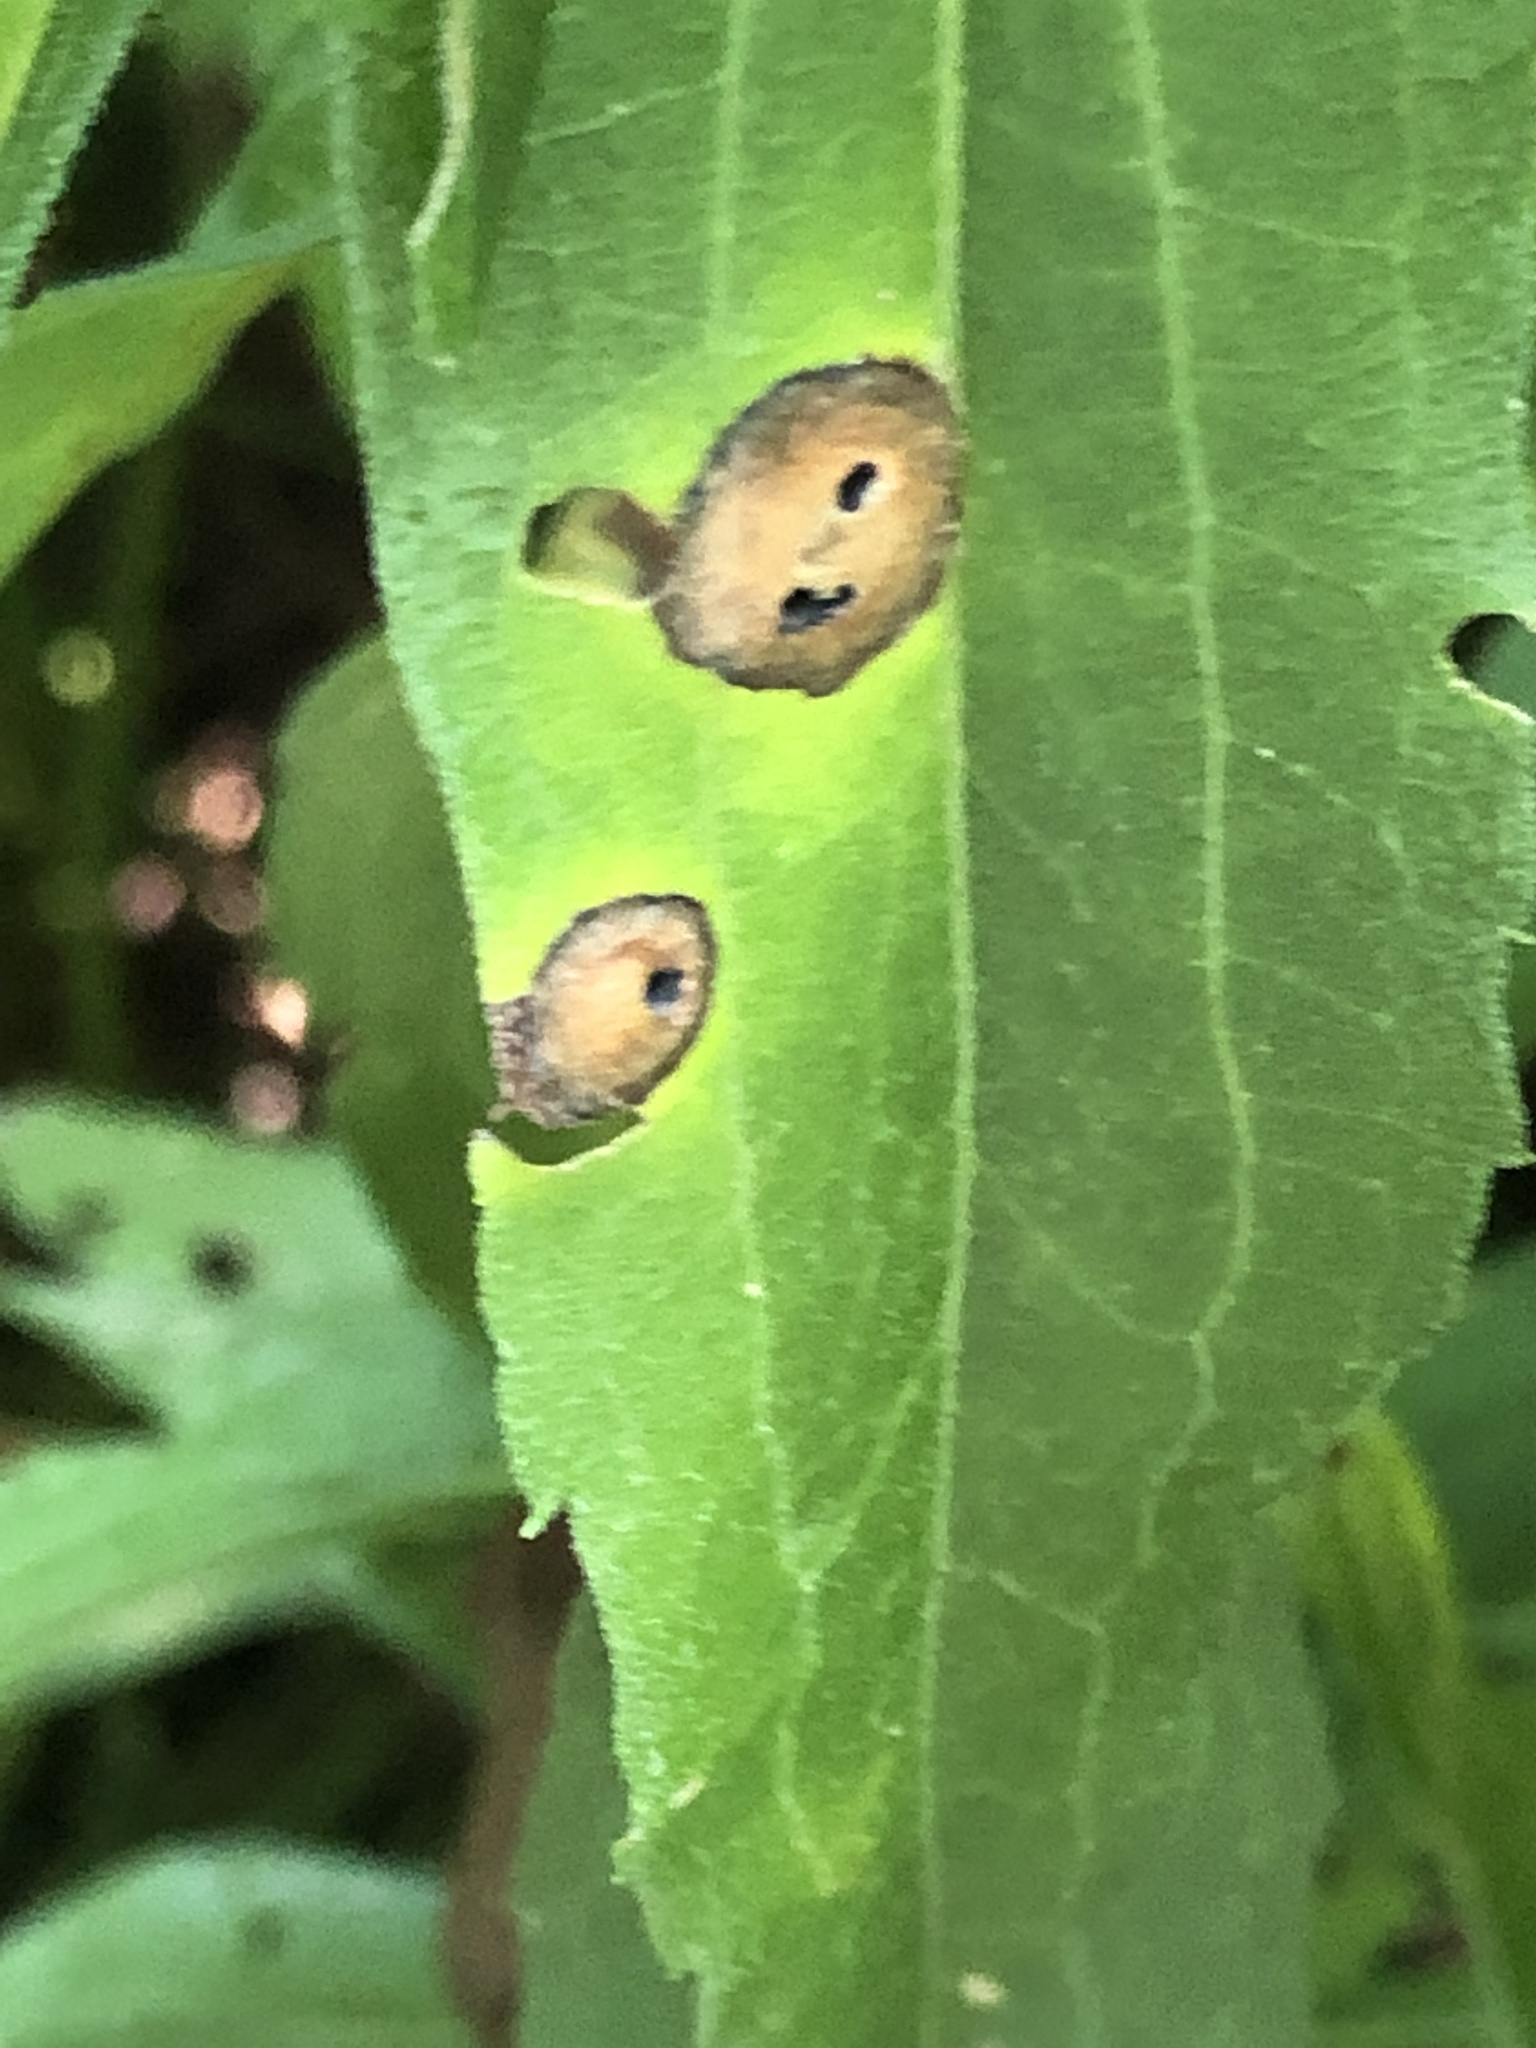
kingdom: Animalia
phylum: Arthropoda
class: Insecta
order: Diptera
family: Cecidomyiidae
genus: Asteromyia
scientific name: Asteromyia carbonifera
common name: Carbonifera goldenrod gall midge
